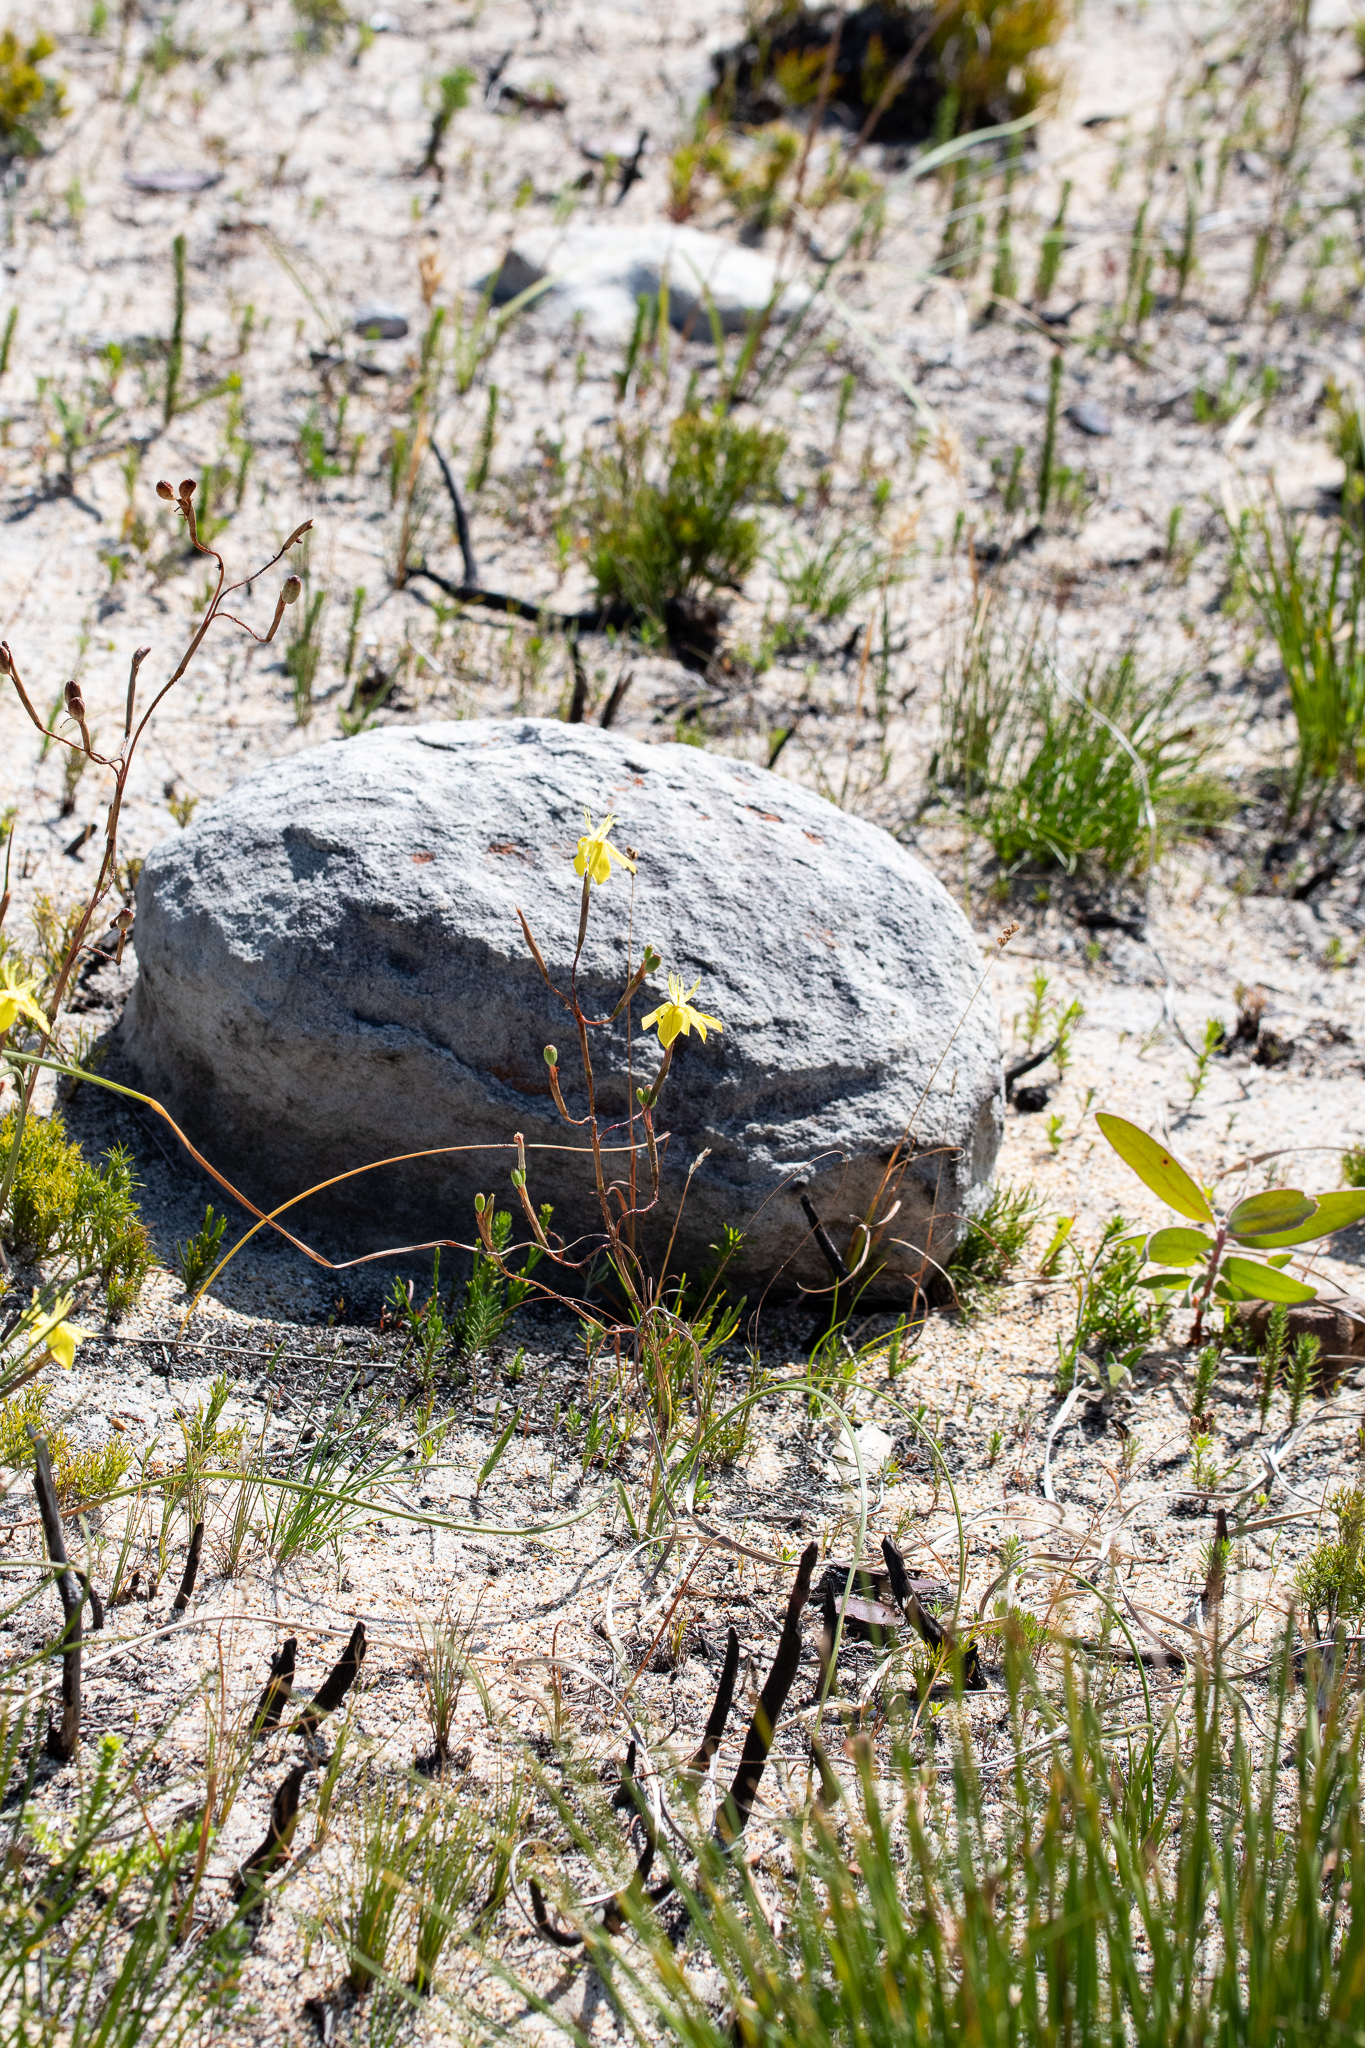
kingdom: Plantae
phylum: Tracheophyta
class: Liliopsida
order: Asparagales
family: Iridaceae
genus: Moraea
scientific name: Moraea bituminosa
